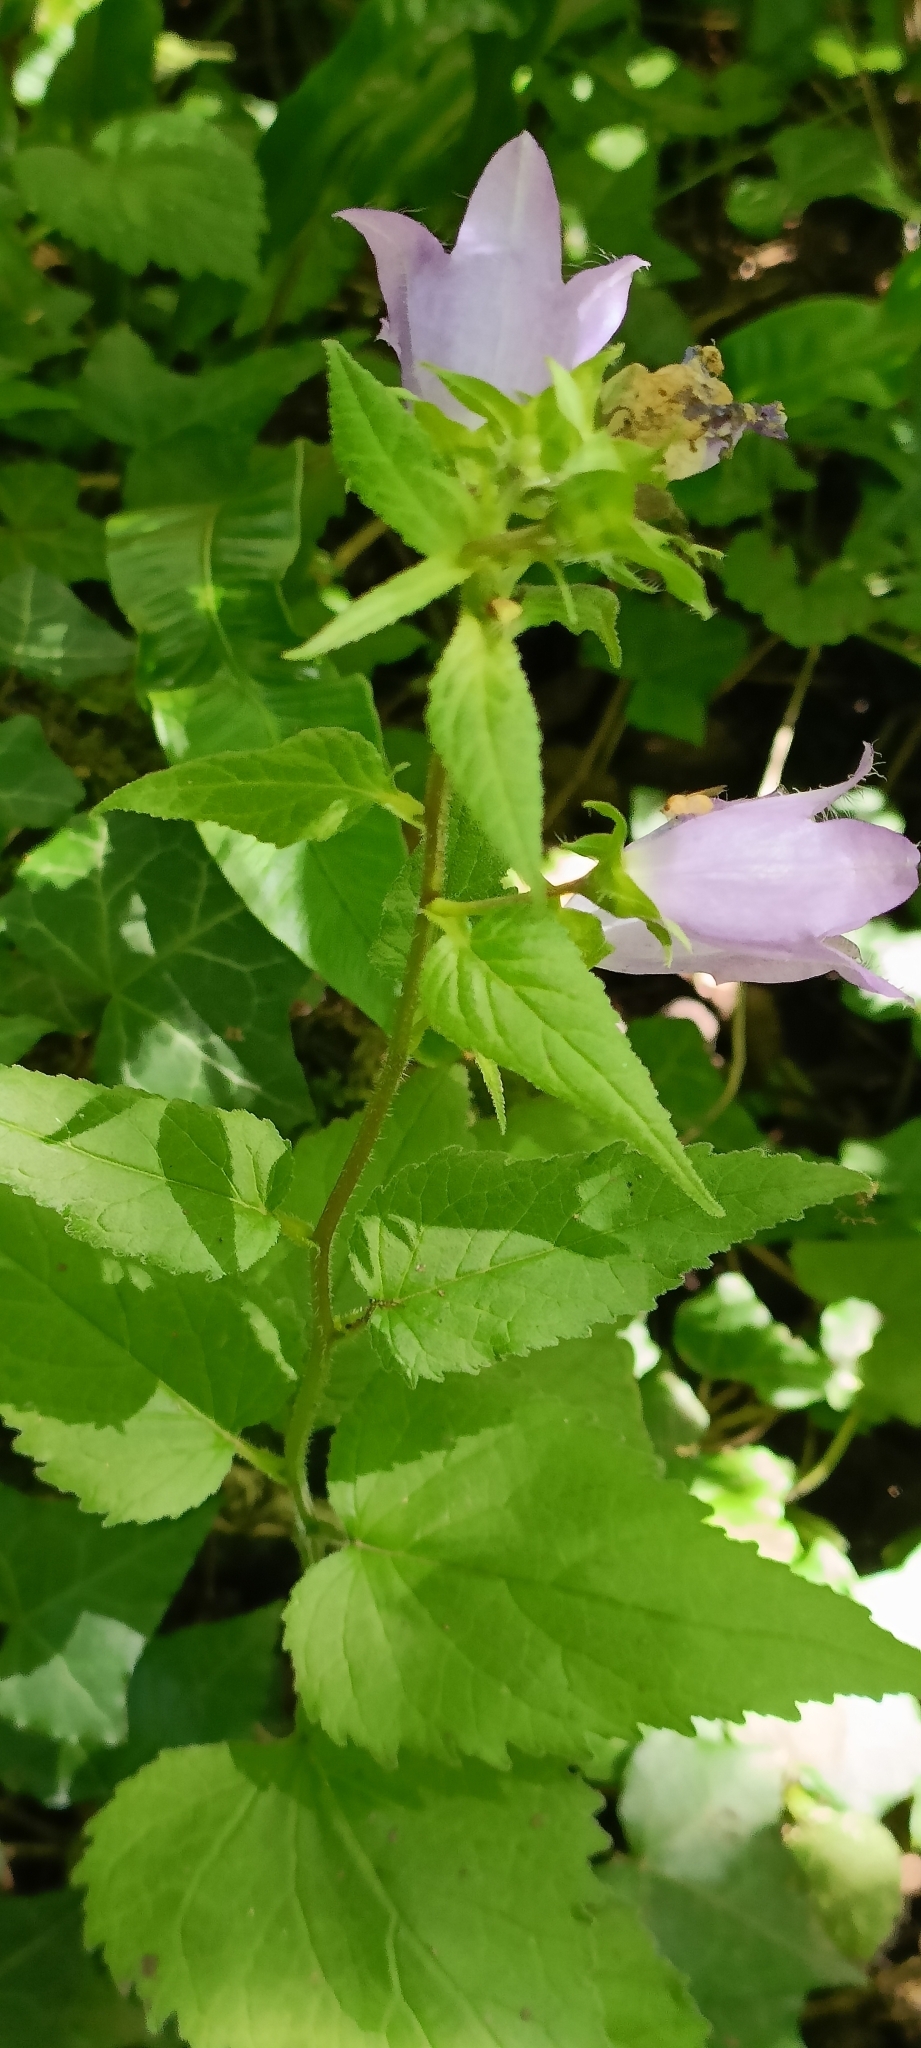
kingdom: Plantae
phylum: Tracheophyta
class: Magnoliopsida
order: Asterales
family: Campanulaceae
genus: Campanula
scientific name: Campanula trachelium
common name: Nettle-leaved bellflower
